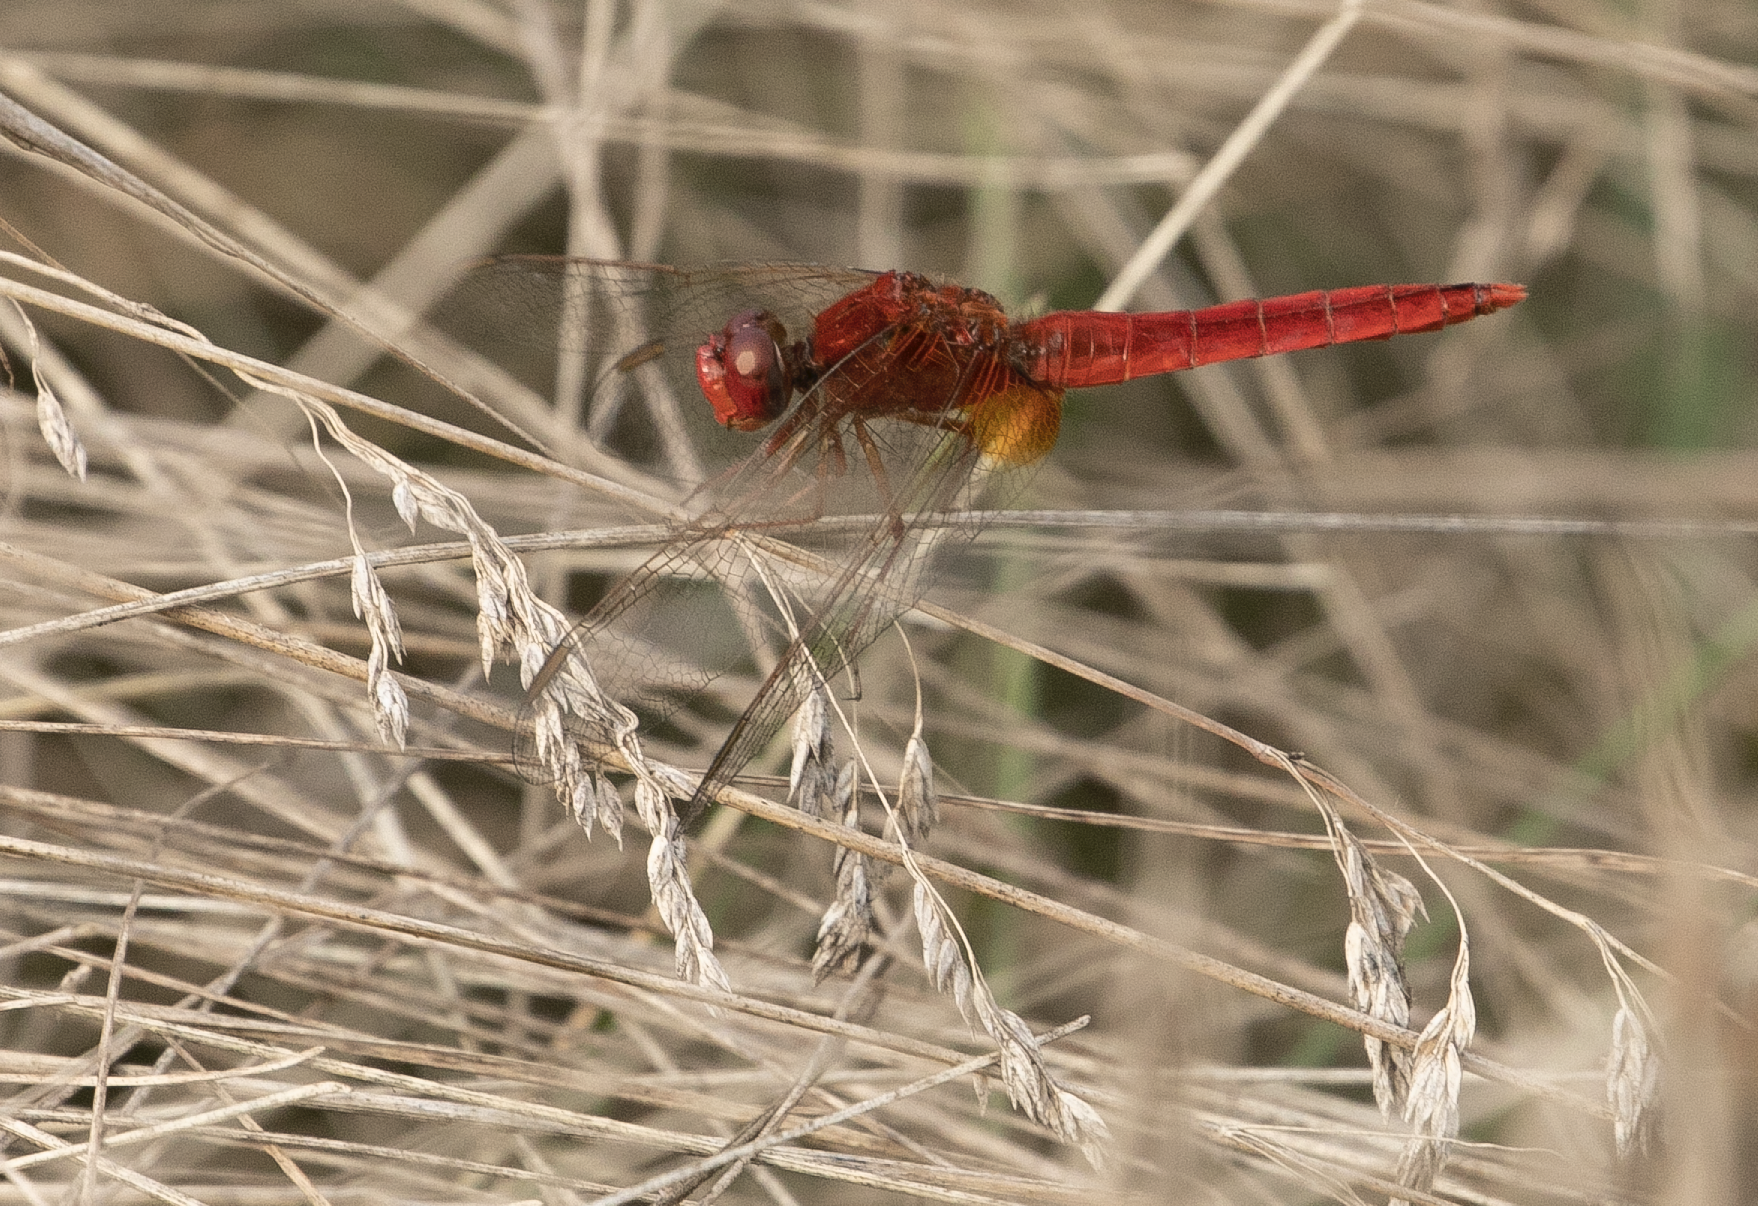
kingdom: Animalia
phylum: Arthropoda
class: Insecta
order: Odonata
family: Libellulidae
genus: Crocothemis
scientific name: Crocothemis erythraea
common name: Scarlet dragonfly
